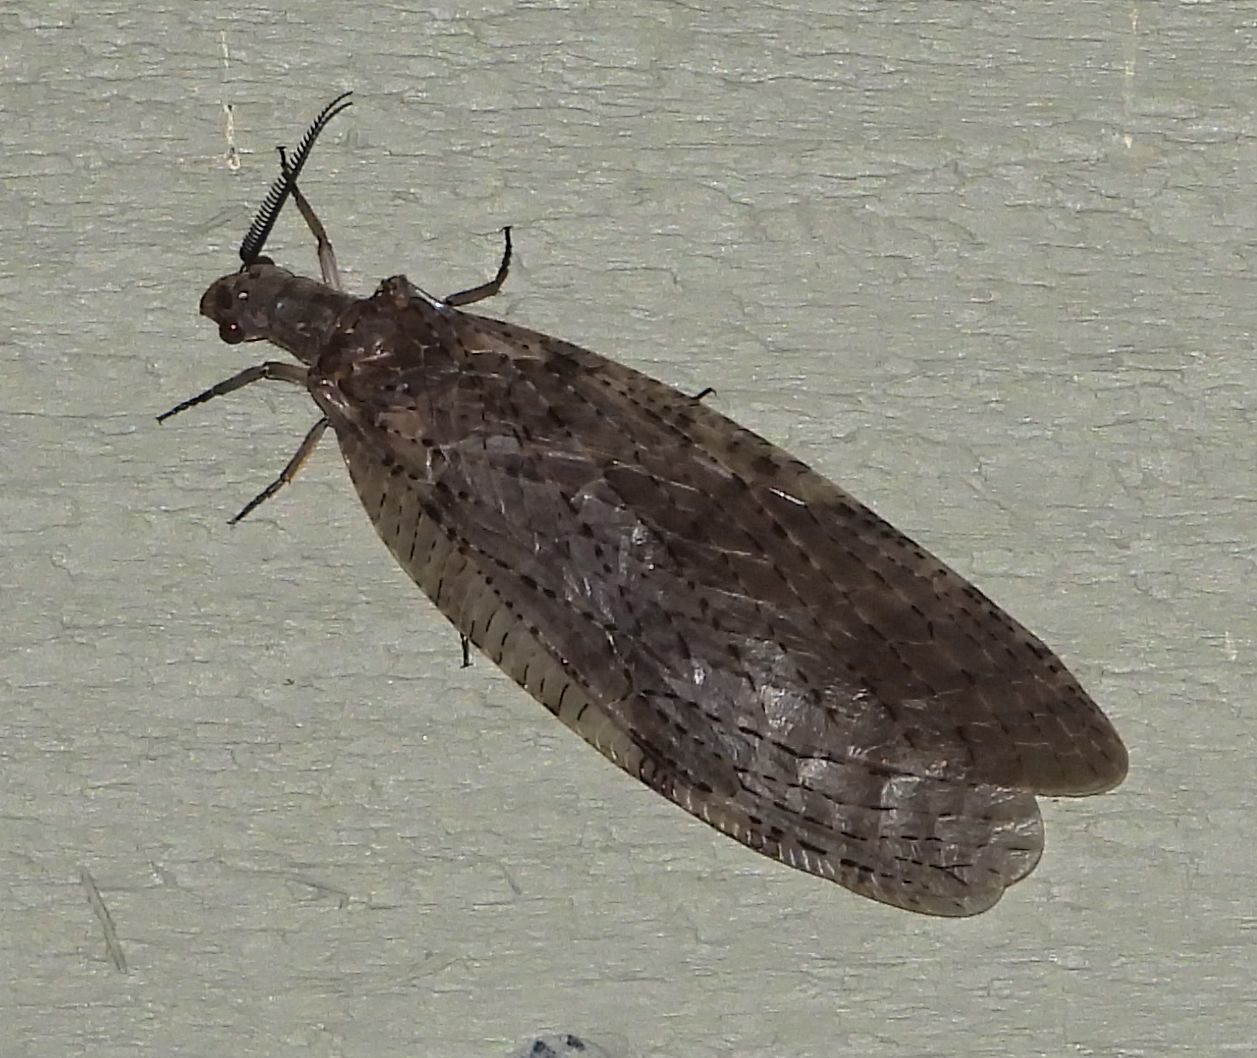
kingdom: Animalia
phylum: Arthropoda
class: Insecta
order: Megaloptera
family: Corydalidae
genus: Chauliodes
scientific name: Chauliodes pectinicornis
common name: Summer fishfly
